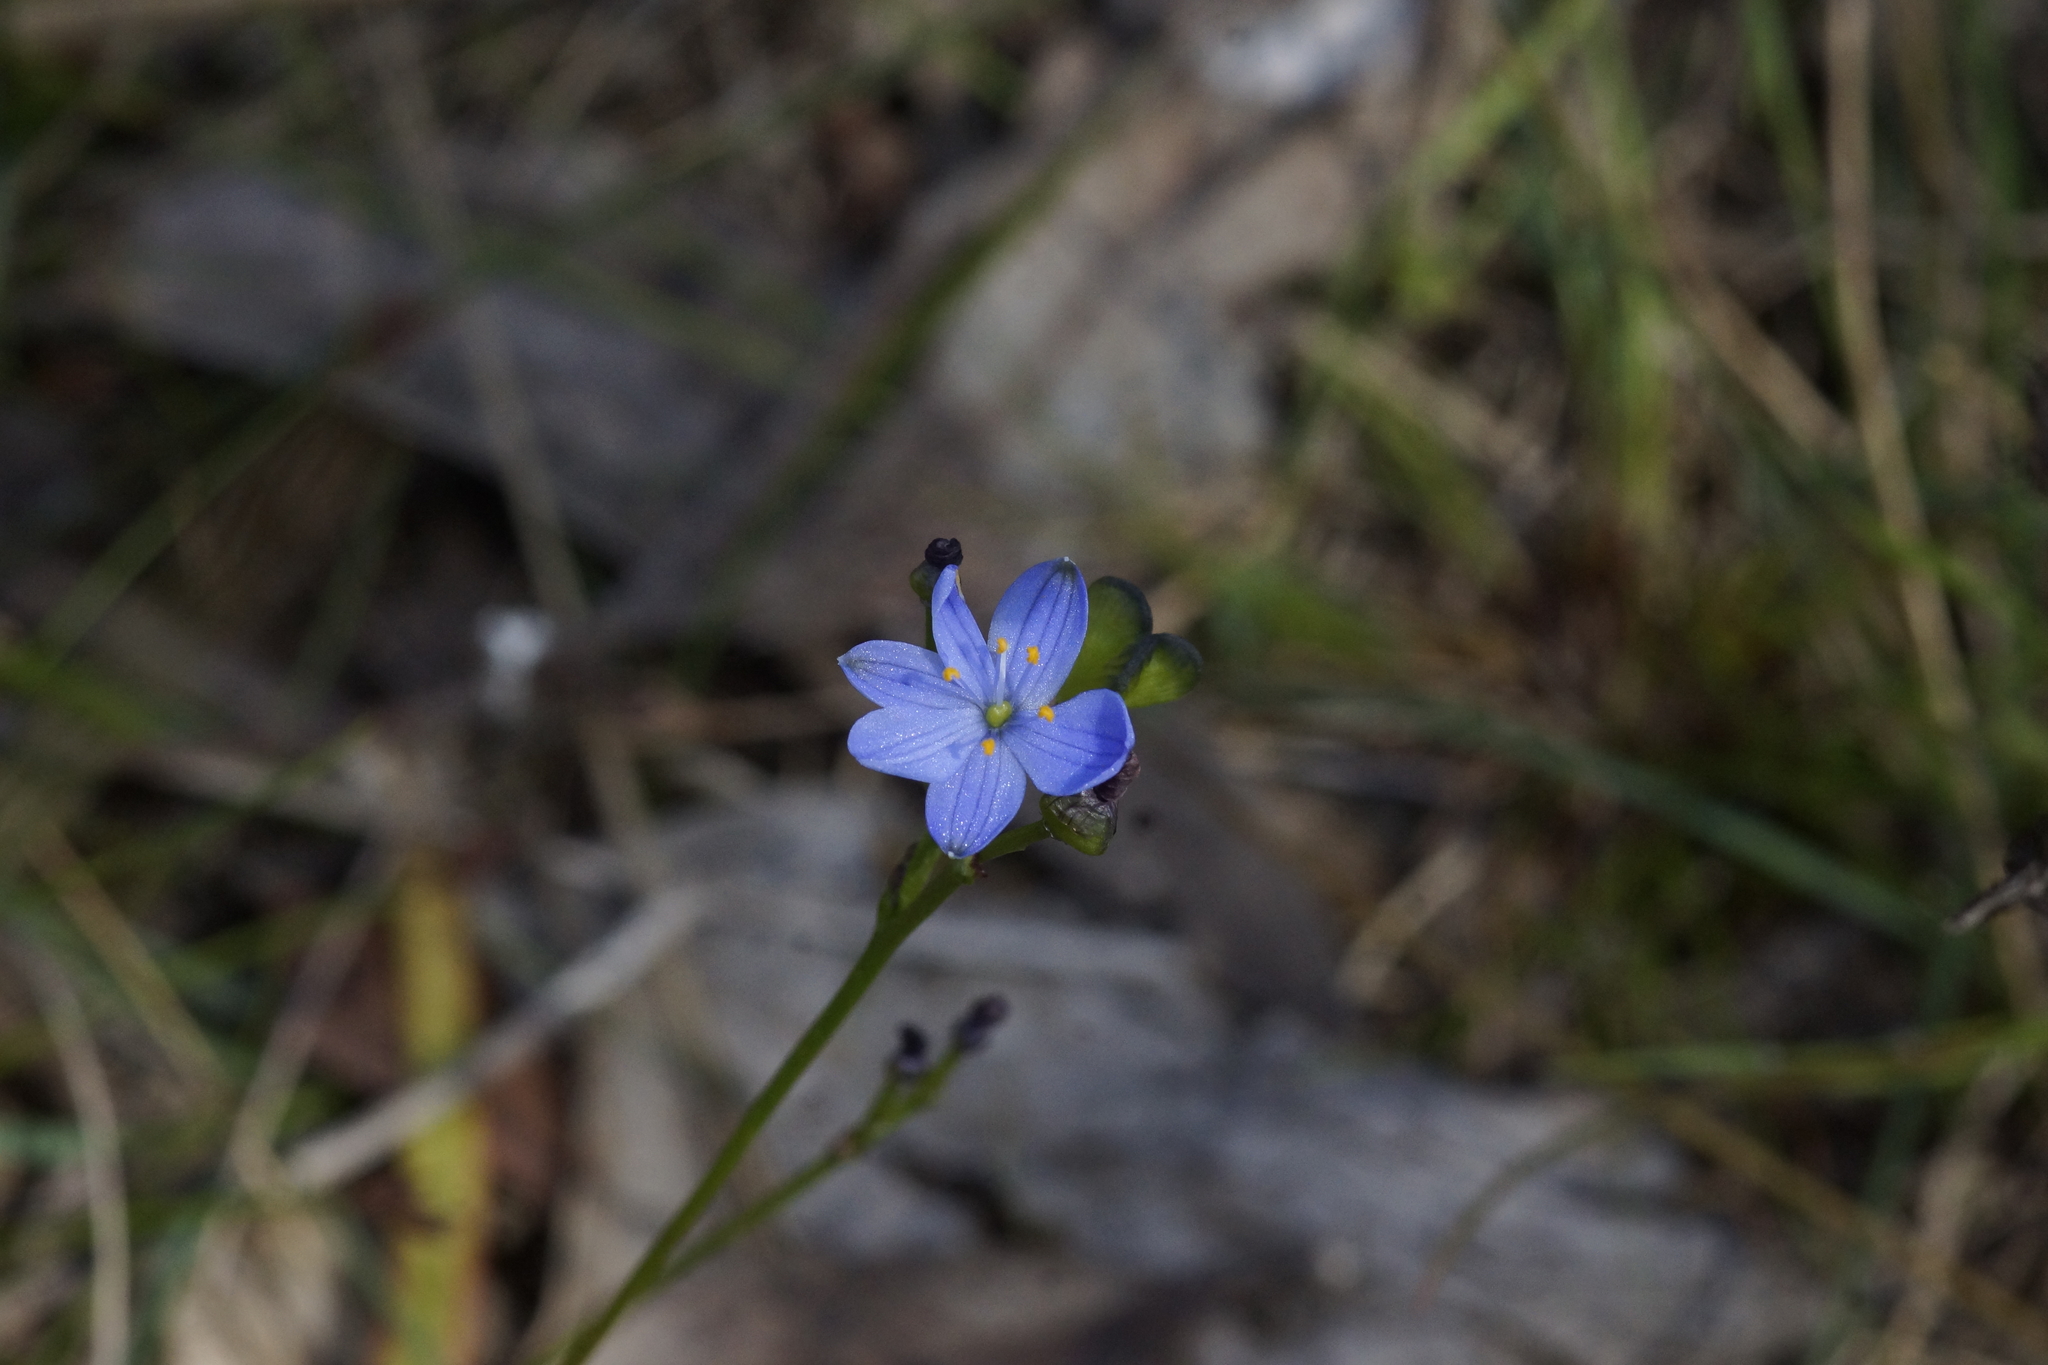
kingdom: Plantae
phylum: Tracheophyta
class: Liliopsida
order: Asparagales
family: Asphodelaceae
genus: Chamaescilla
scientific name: Chamaescilla corymbosa
